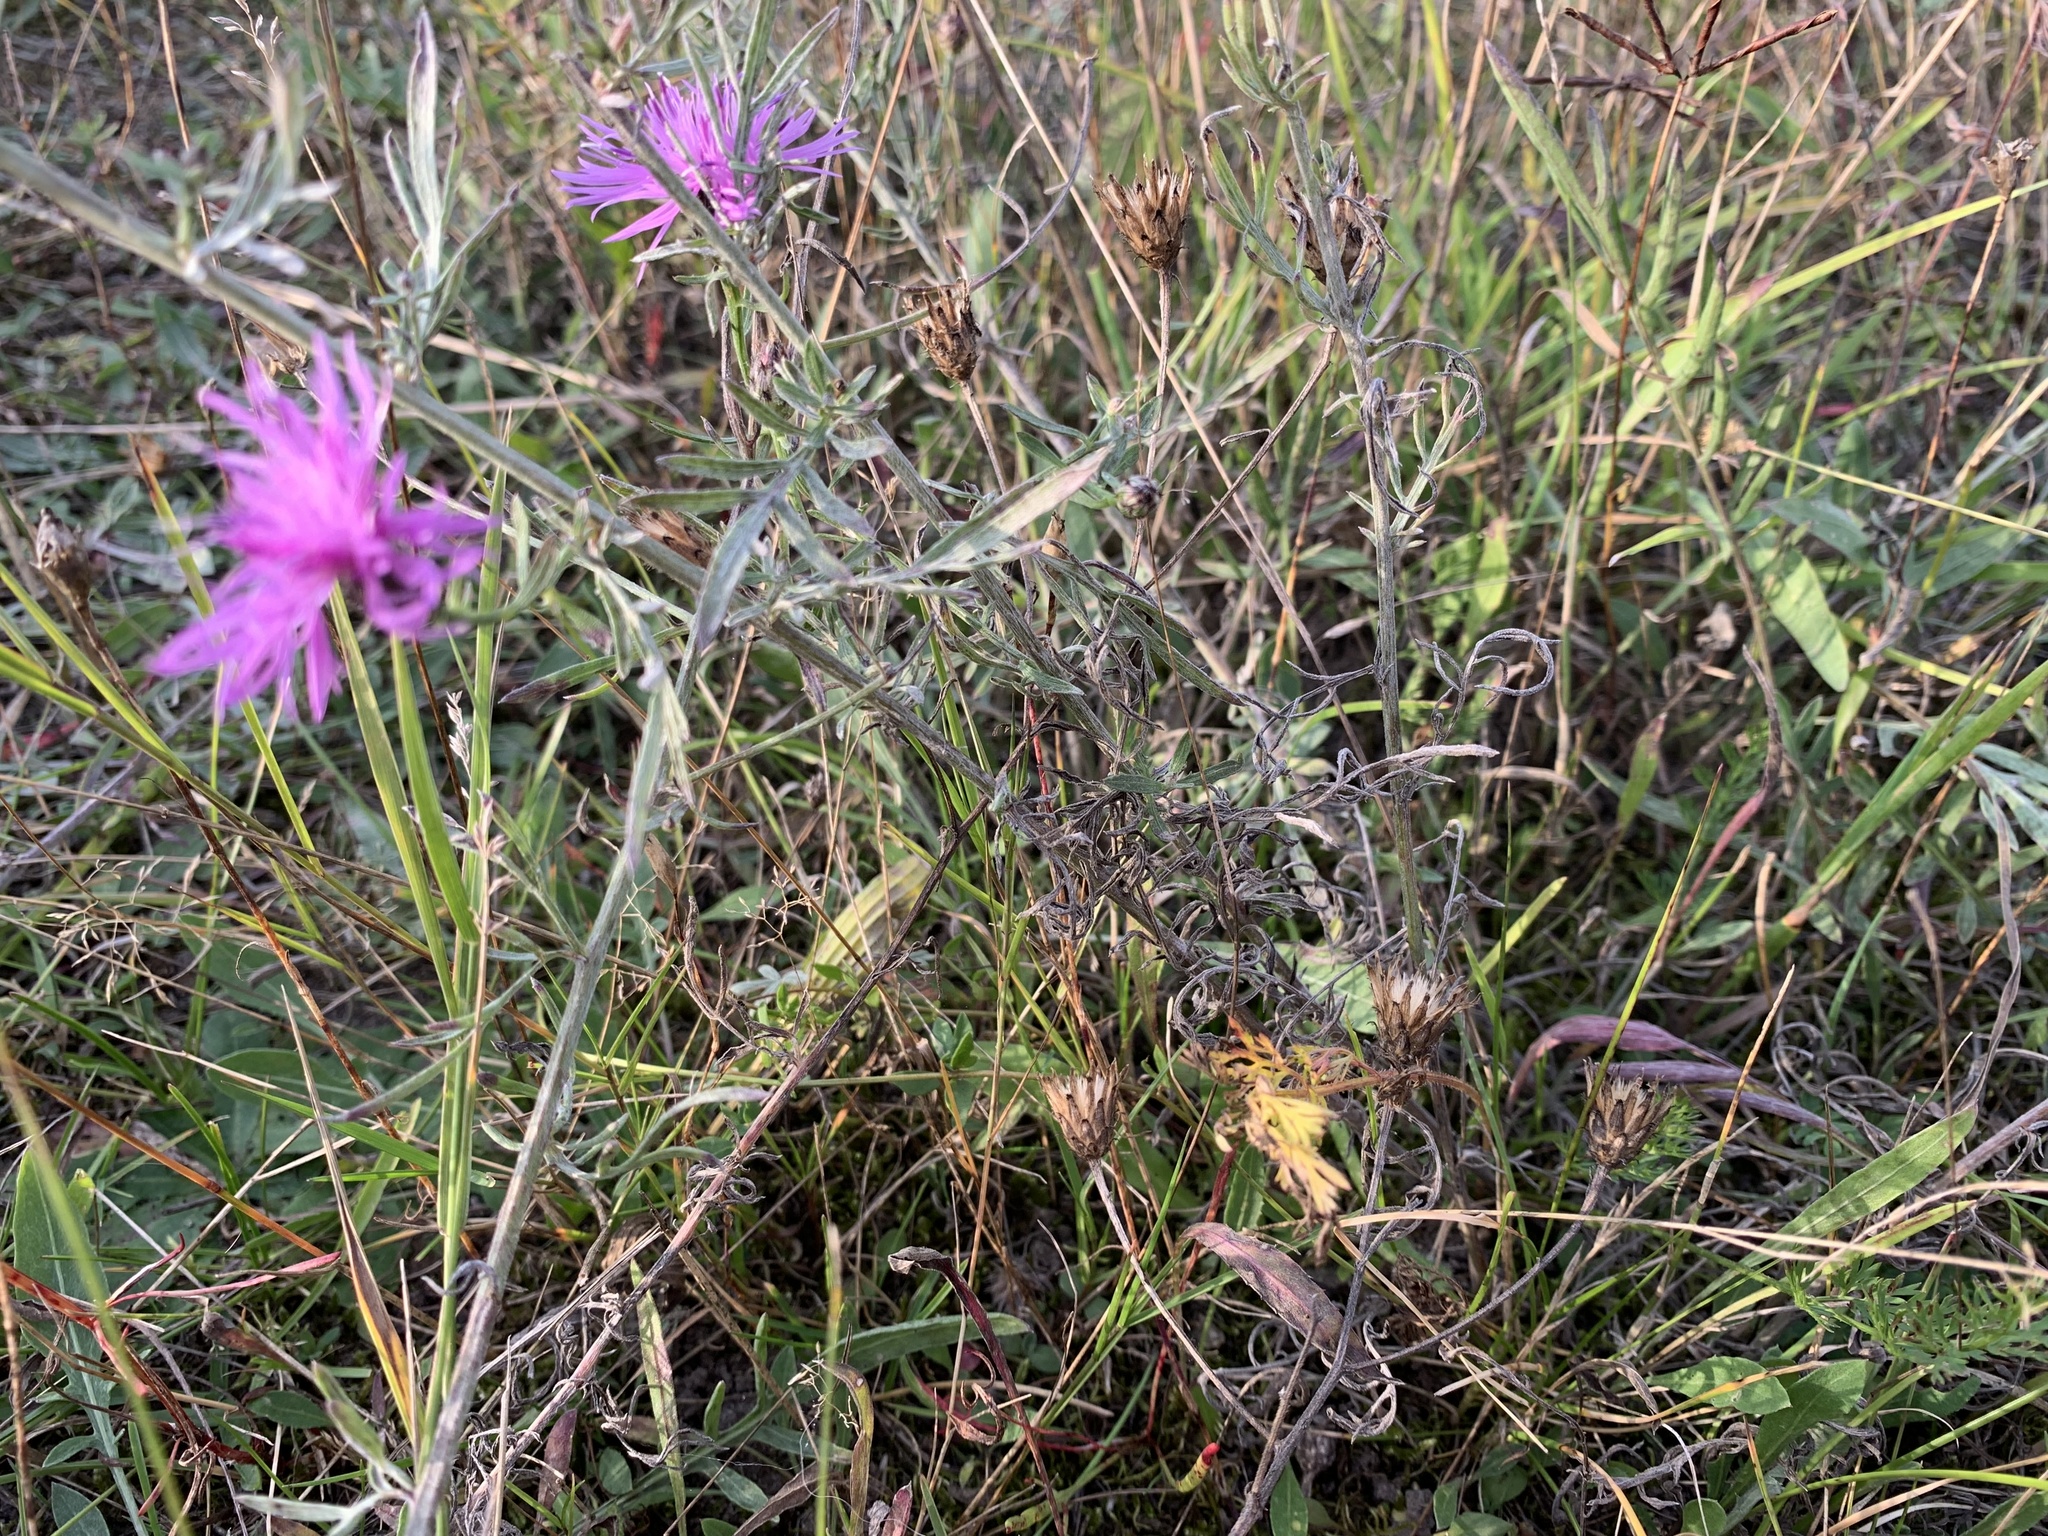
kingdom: Plantae
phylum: Tracheophyta
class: Magnoliopsida
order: Asterales
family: Asteraceae
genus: Centaurea
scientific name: Centaurea stoebe
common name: Spotted knapweed
